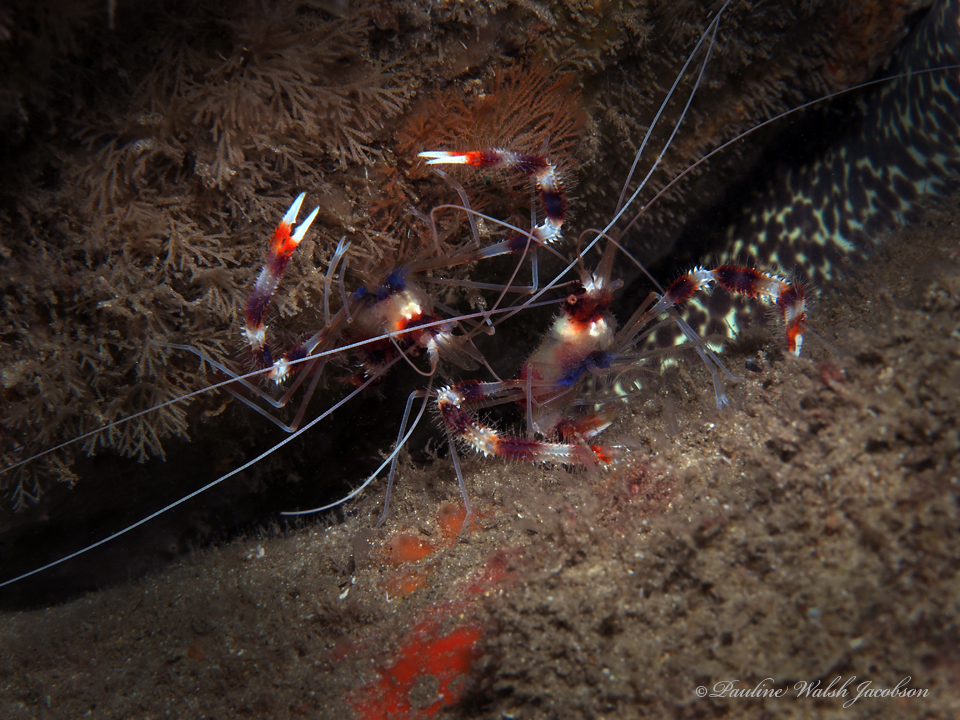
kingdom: Animalia
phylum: Arthropoda
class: Malacostraca
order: Decapoda
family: Stenopodidae
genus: Stenopus
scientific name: Stenopus hispidus
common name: Banded coral shrimp
